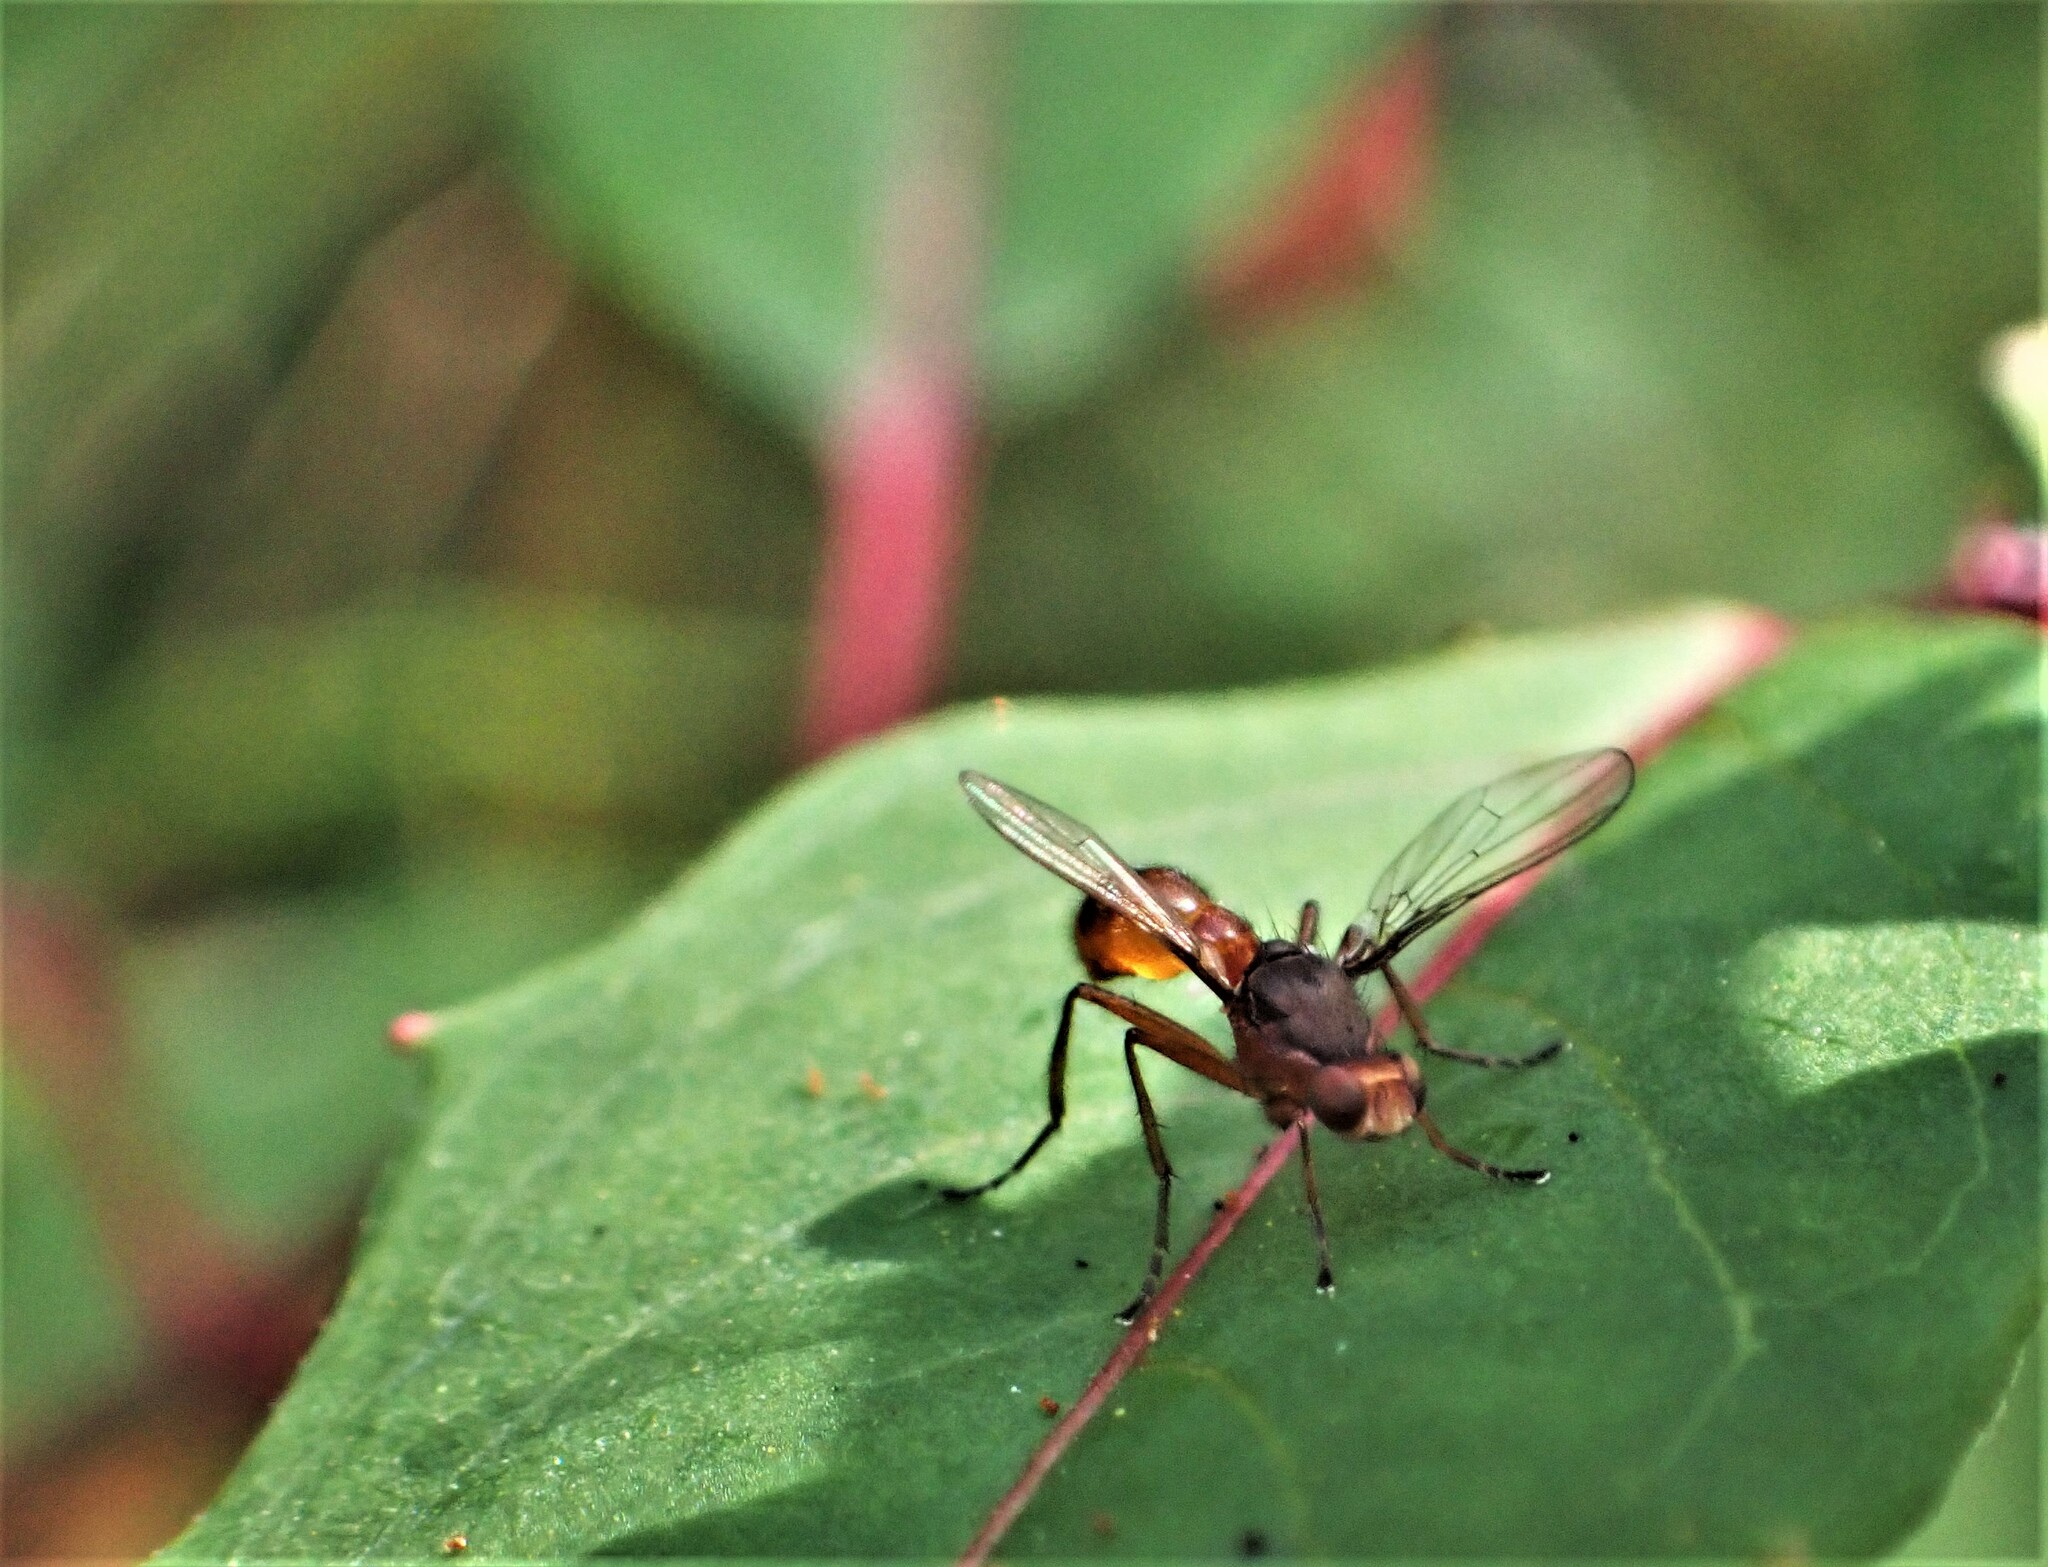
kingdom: Animalia
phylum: Arthropoda
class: Insecta
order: Diptera
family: Sepsidae
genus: Lasionemopoda
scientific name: Lasionemopoda hirsuta
